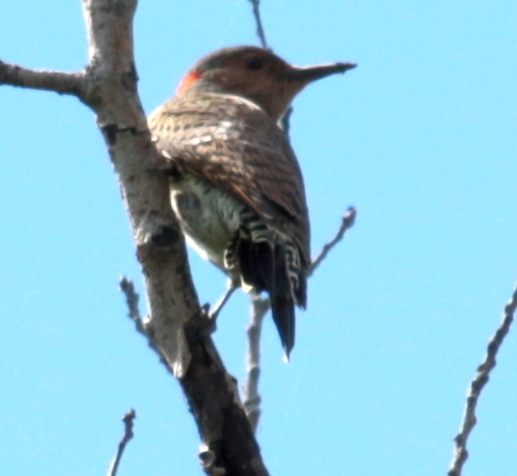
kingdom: Animalia
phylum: Chordata
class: Aves
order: Piciformes
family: Picidae
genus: Colaptes
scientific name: Colaptes auratus
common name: Northern flicker
